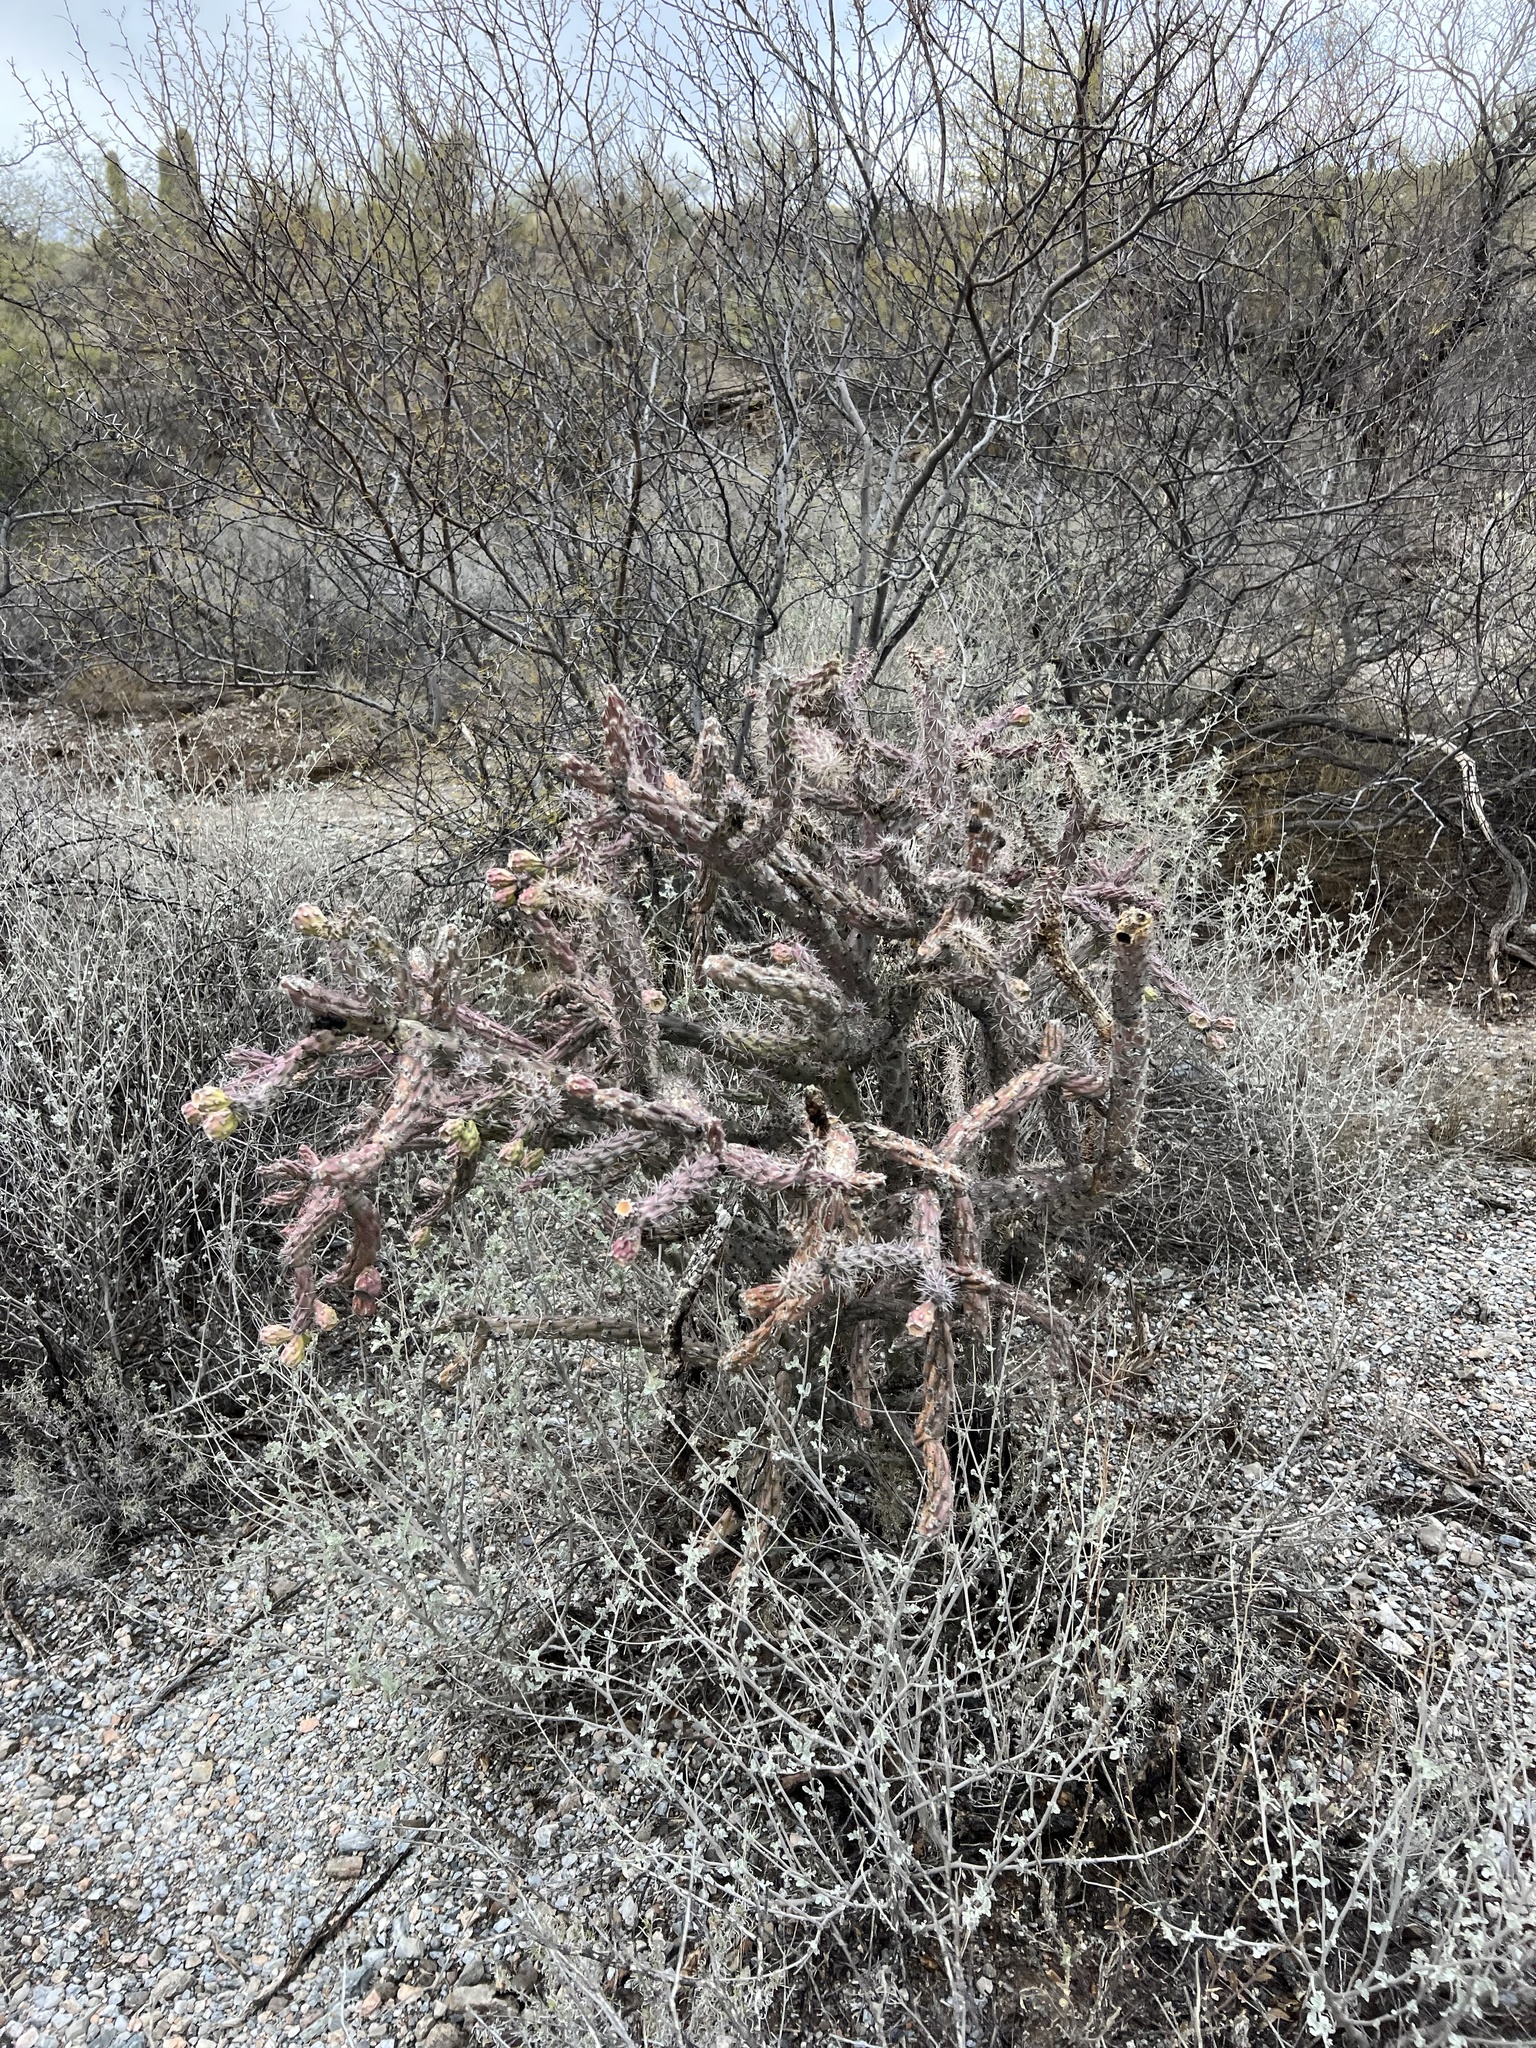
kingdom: Plantae
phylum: Tracheophyta
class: Magnoliopsida
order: Caryophyllales
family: Cactaceae
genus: Cylindropuntia
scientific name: Cylindropuntia thurberi
